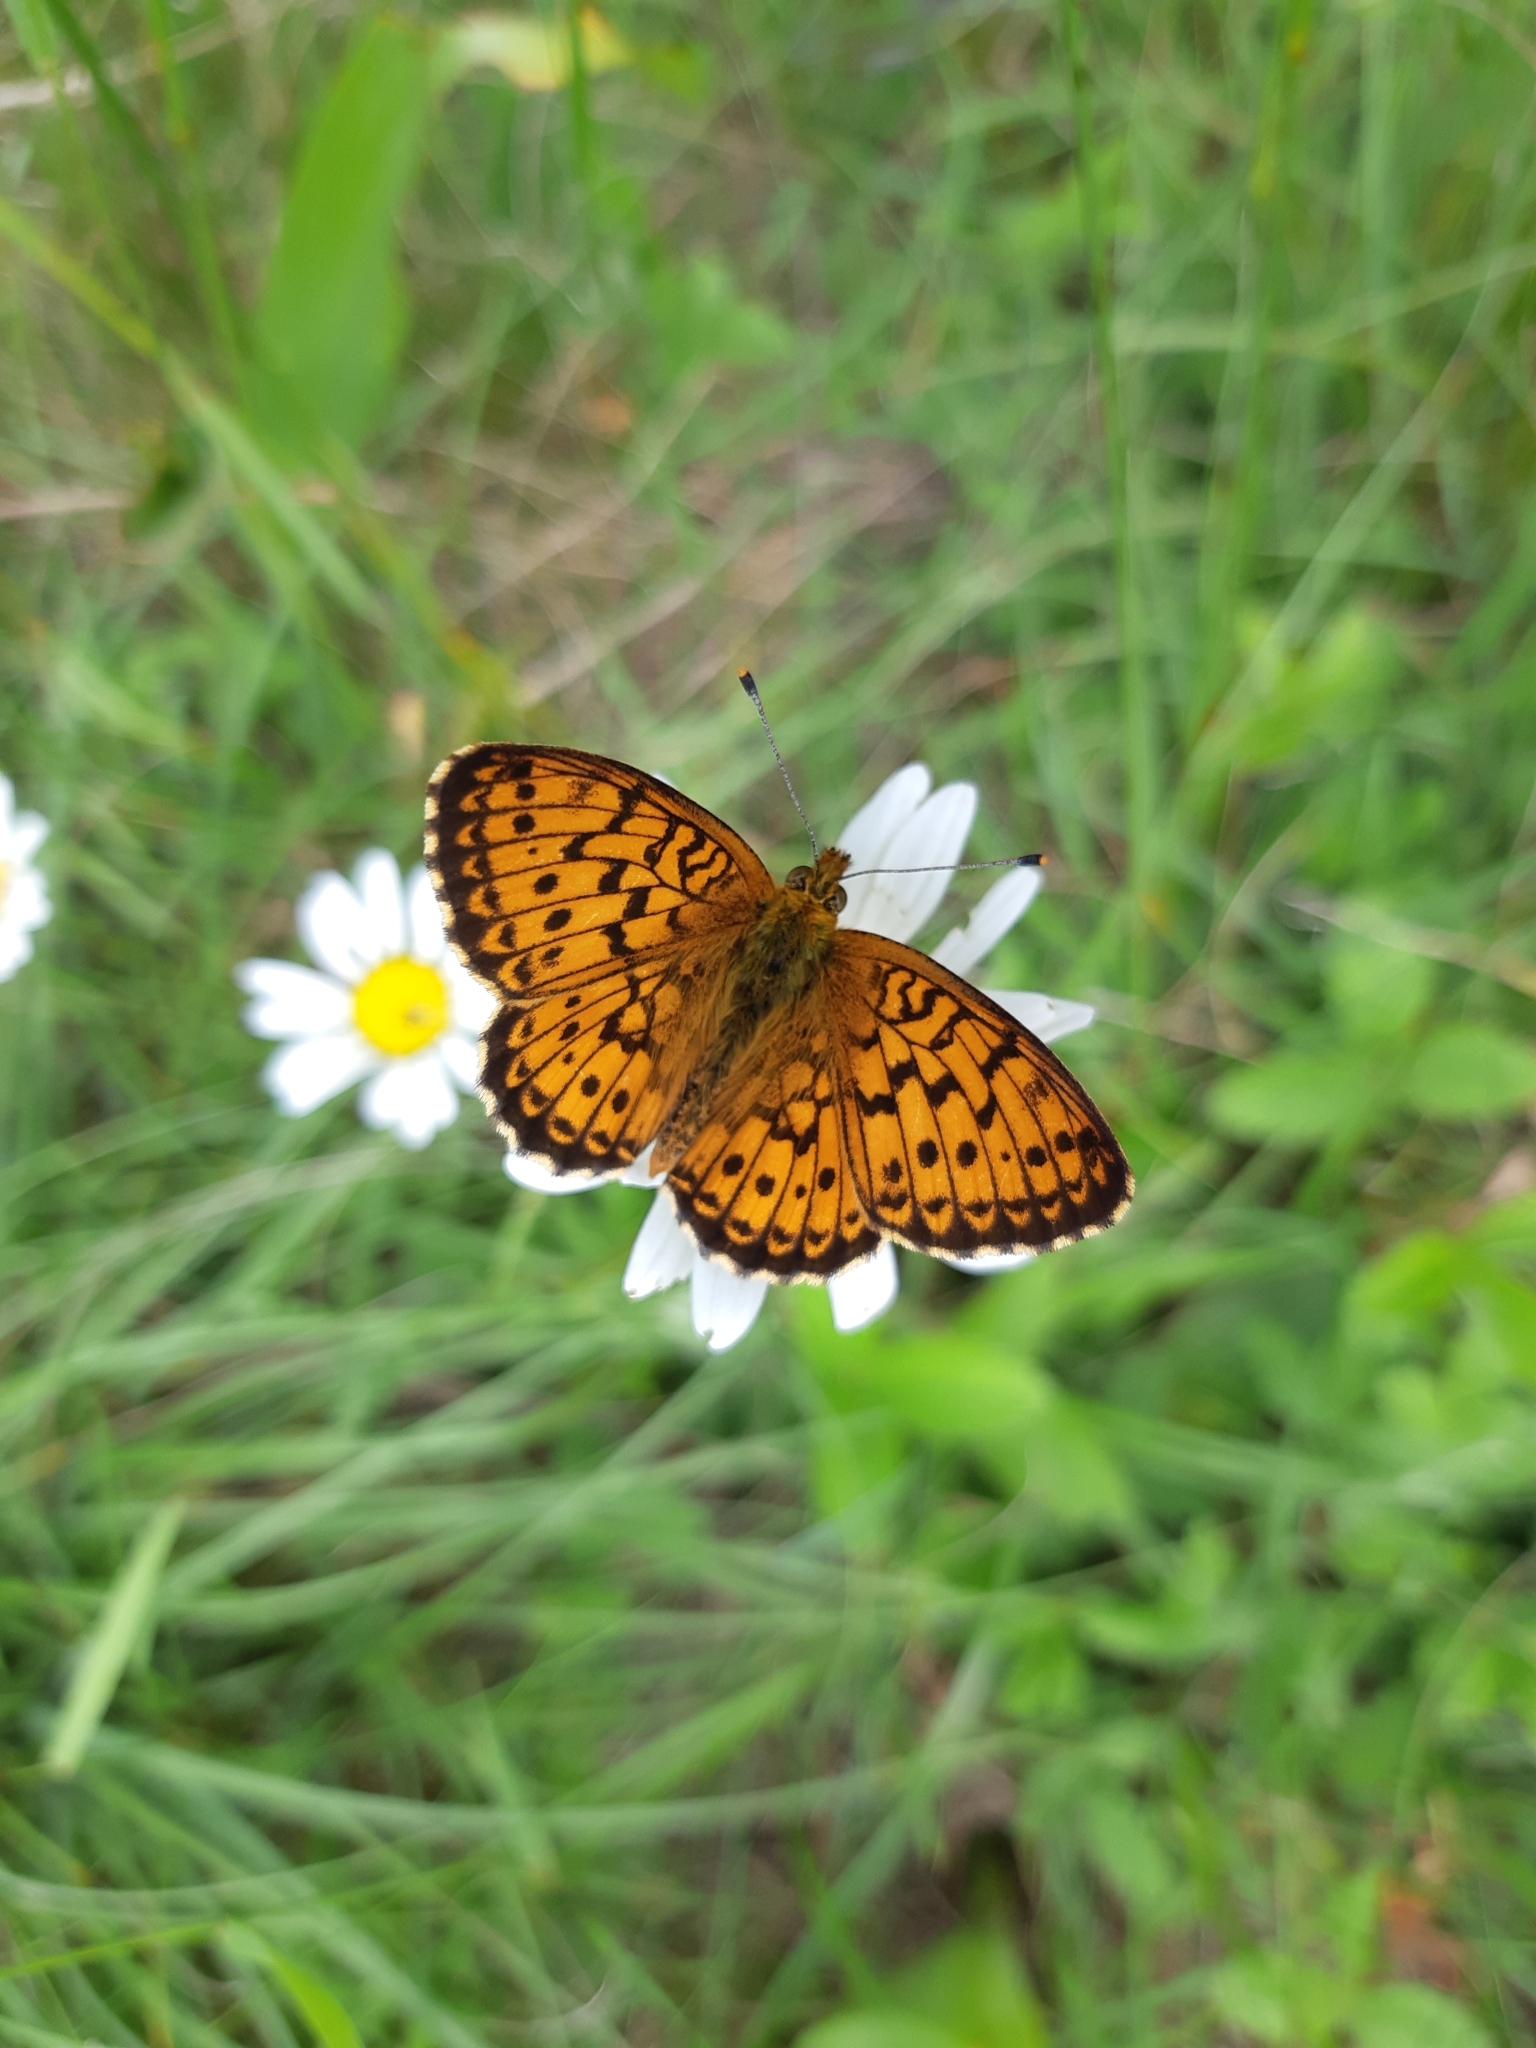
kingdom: Animalia
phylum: Arthropoda
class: Insecta
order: Lepidoptera
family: Nymphalidae
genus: Brenthis
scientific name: Brenthis ino
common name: Lesser marbled fritillary
